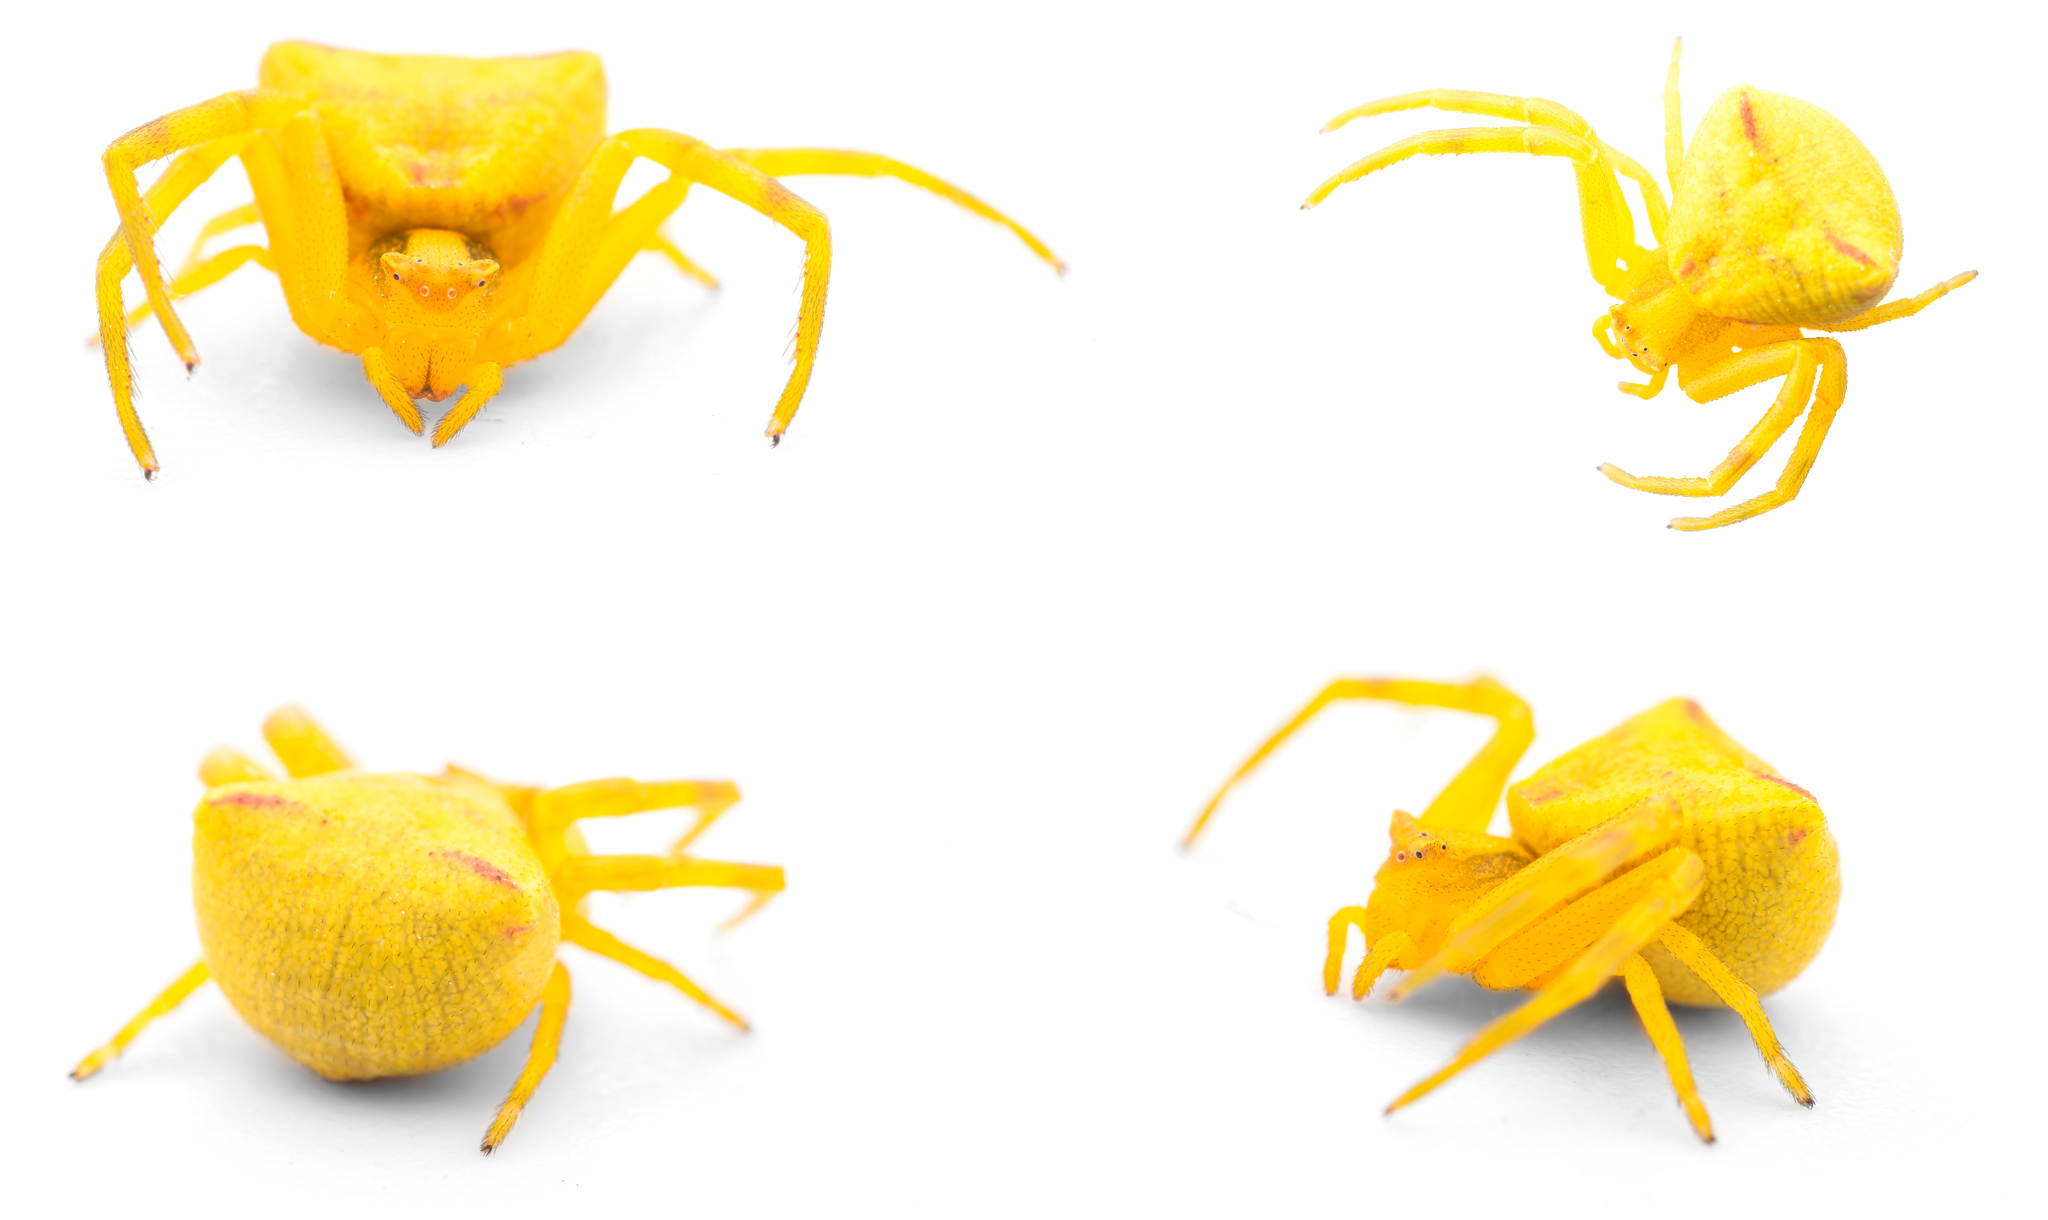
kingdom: Animalia
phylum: Arthropoda
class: Arachnida
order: Araneae
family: Thomisidae
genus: Thomisus
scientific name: Thomisus onustus
